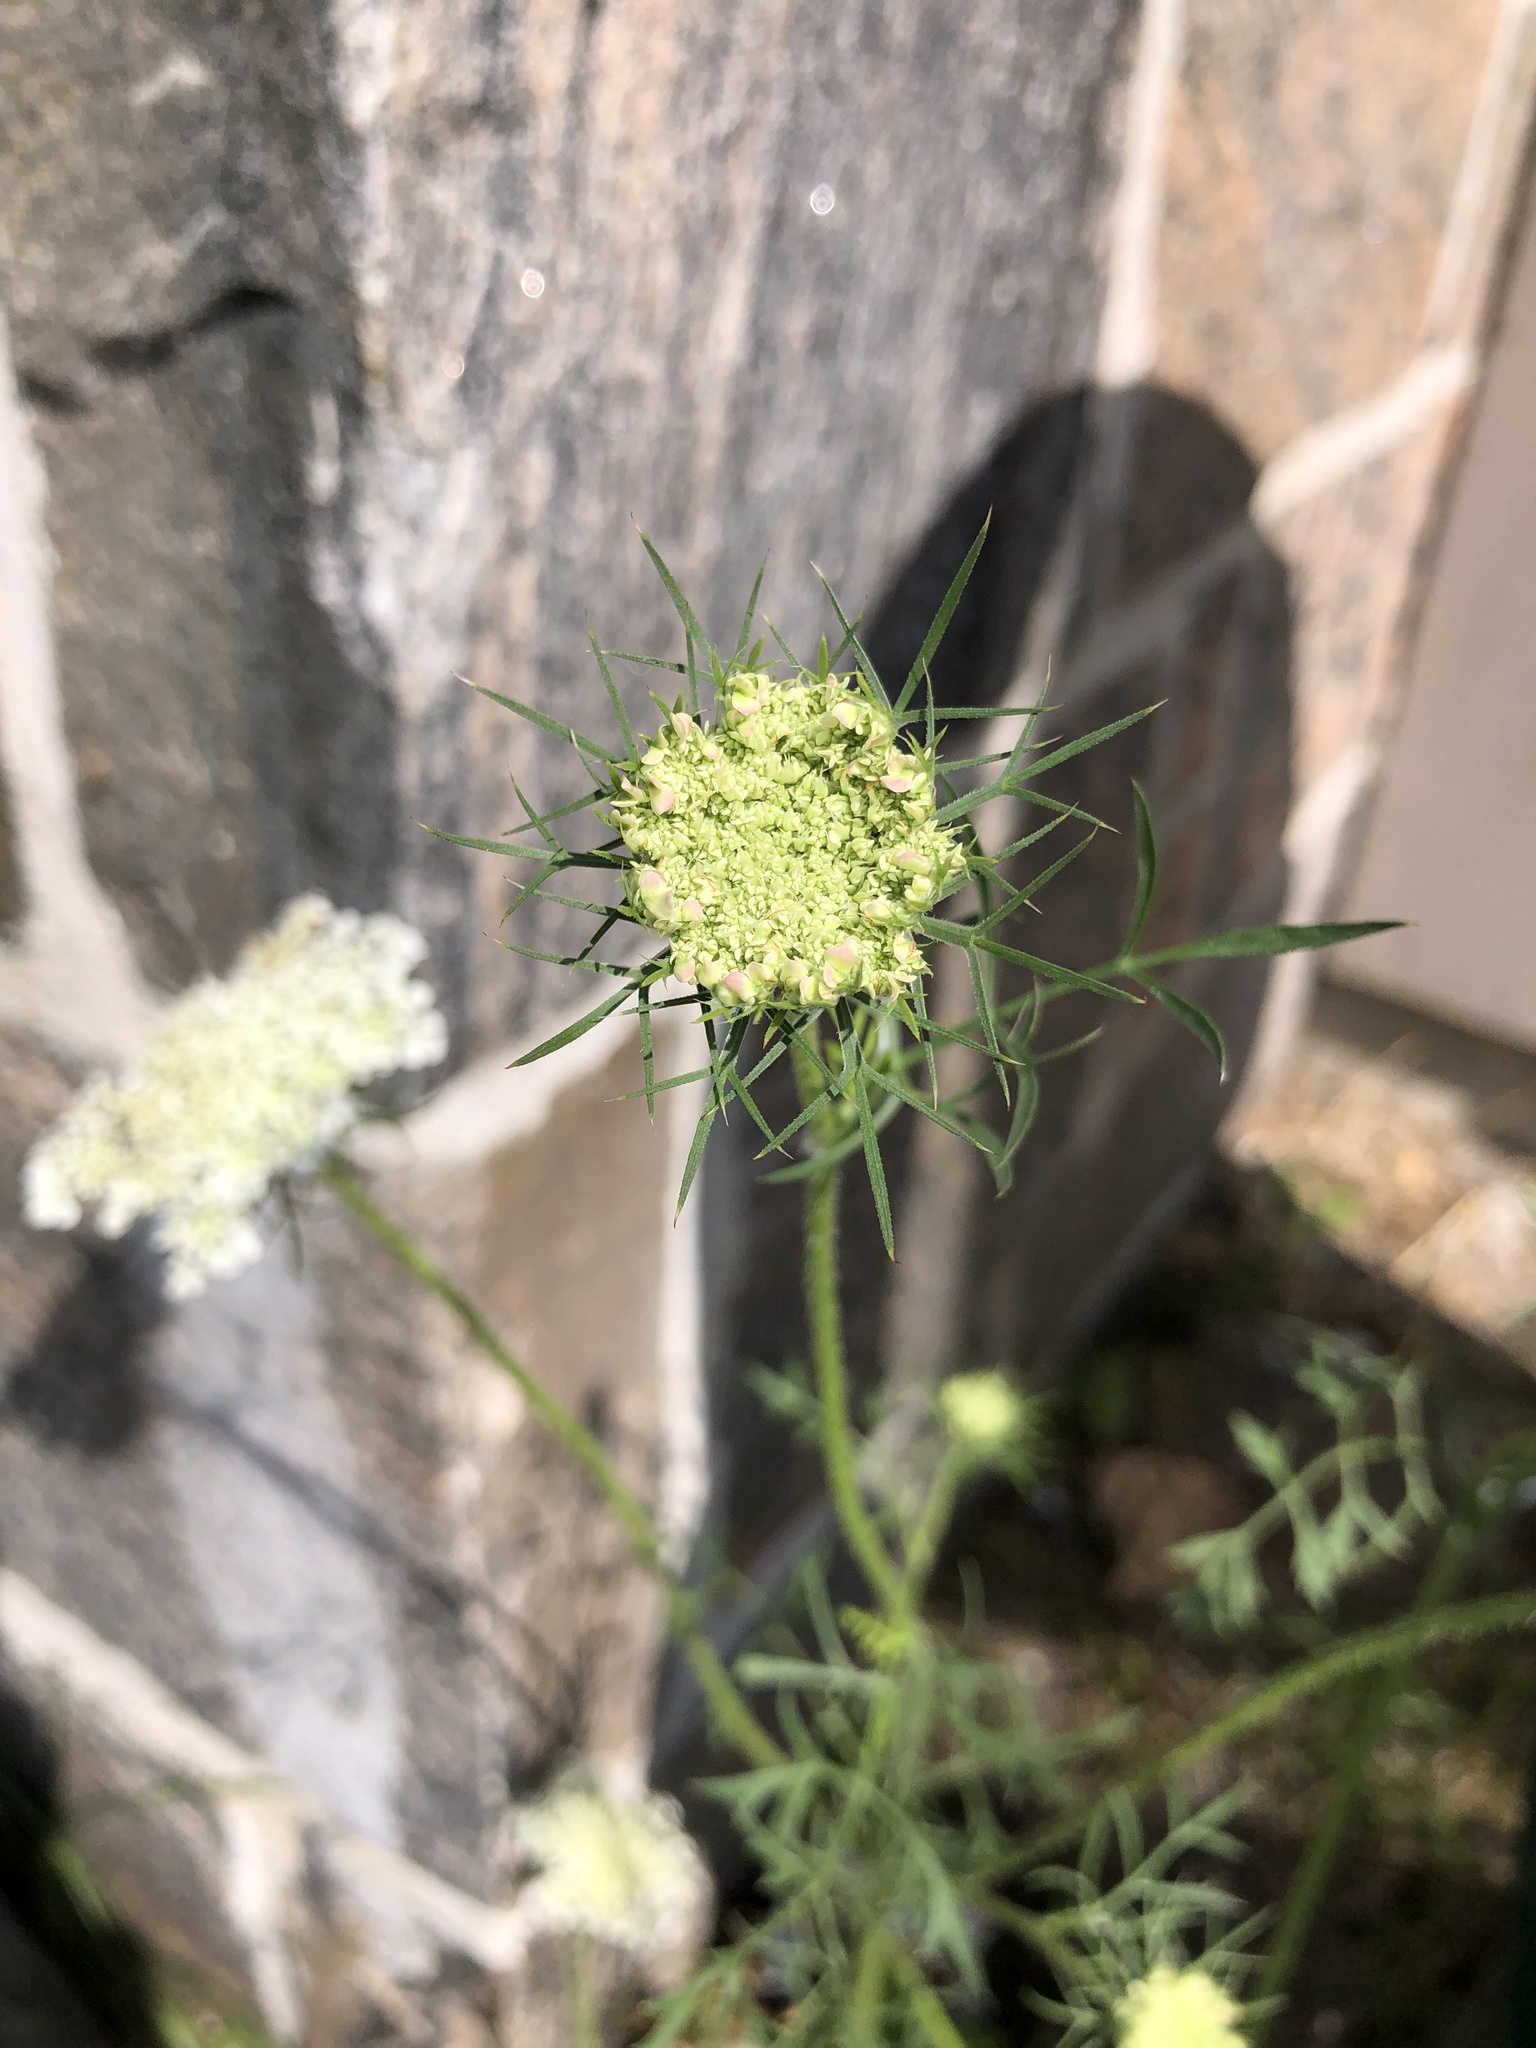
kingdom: Plantae
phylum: Tracheophyta
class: Magnoliopsida
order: Apiales
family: Apiaceae
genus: Daucus
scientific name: Daucus carota
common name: Wild carrot
